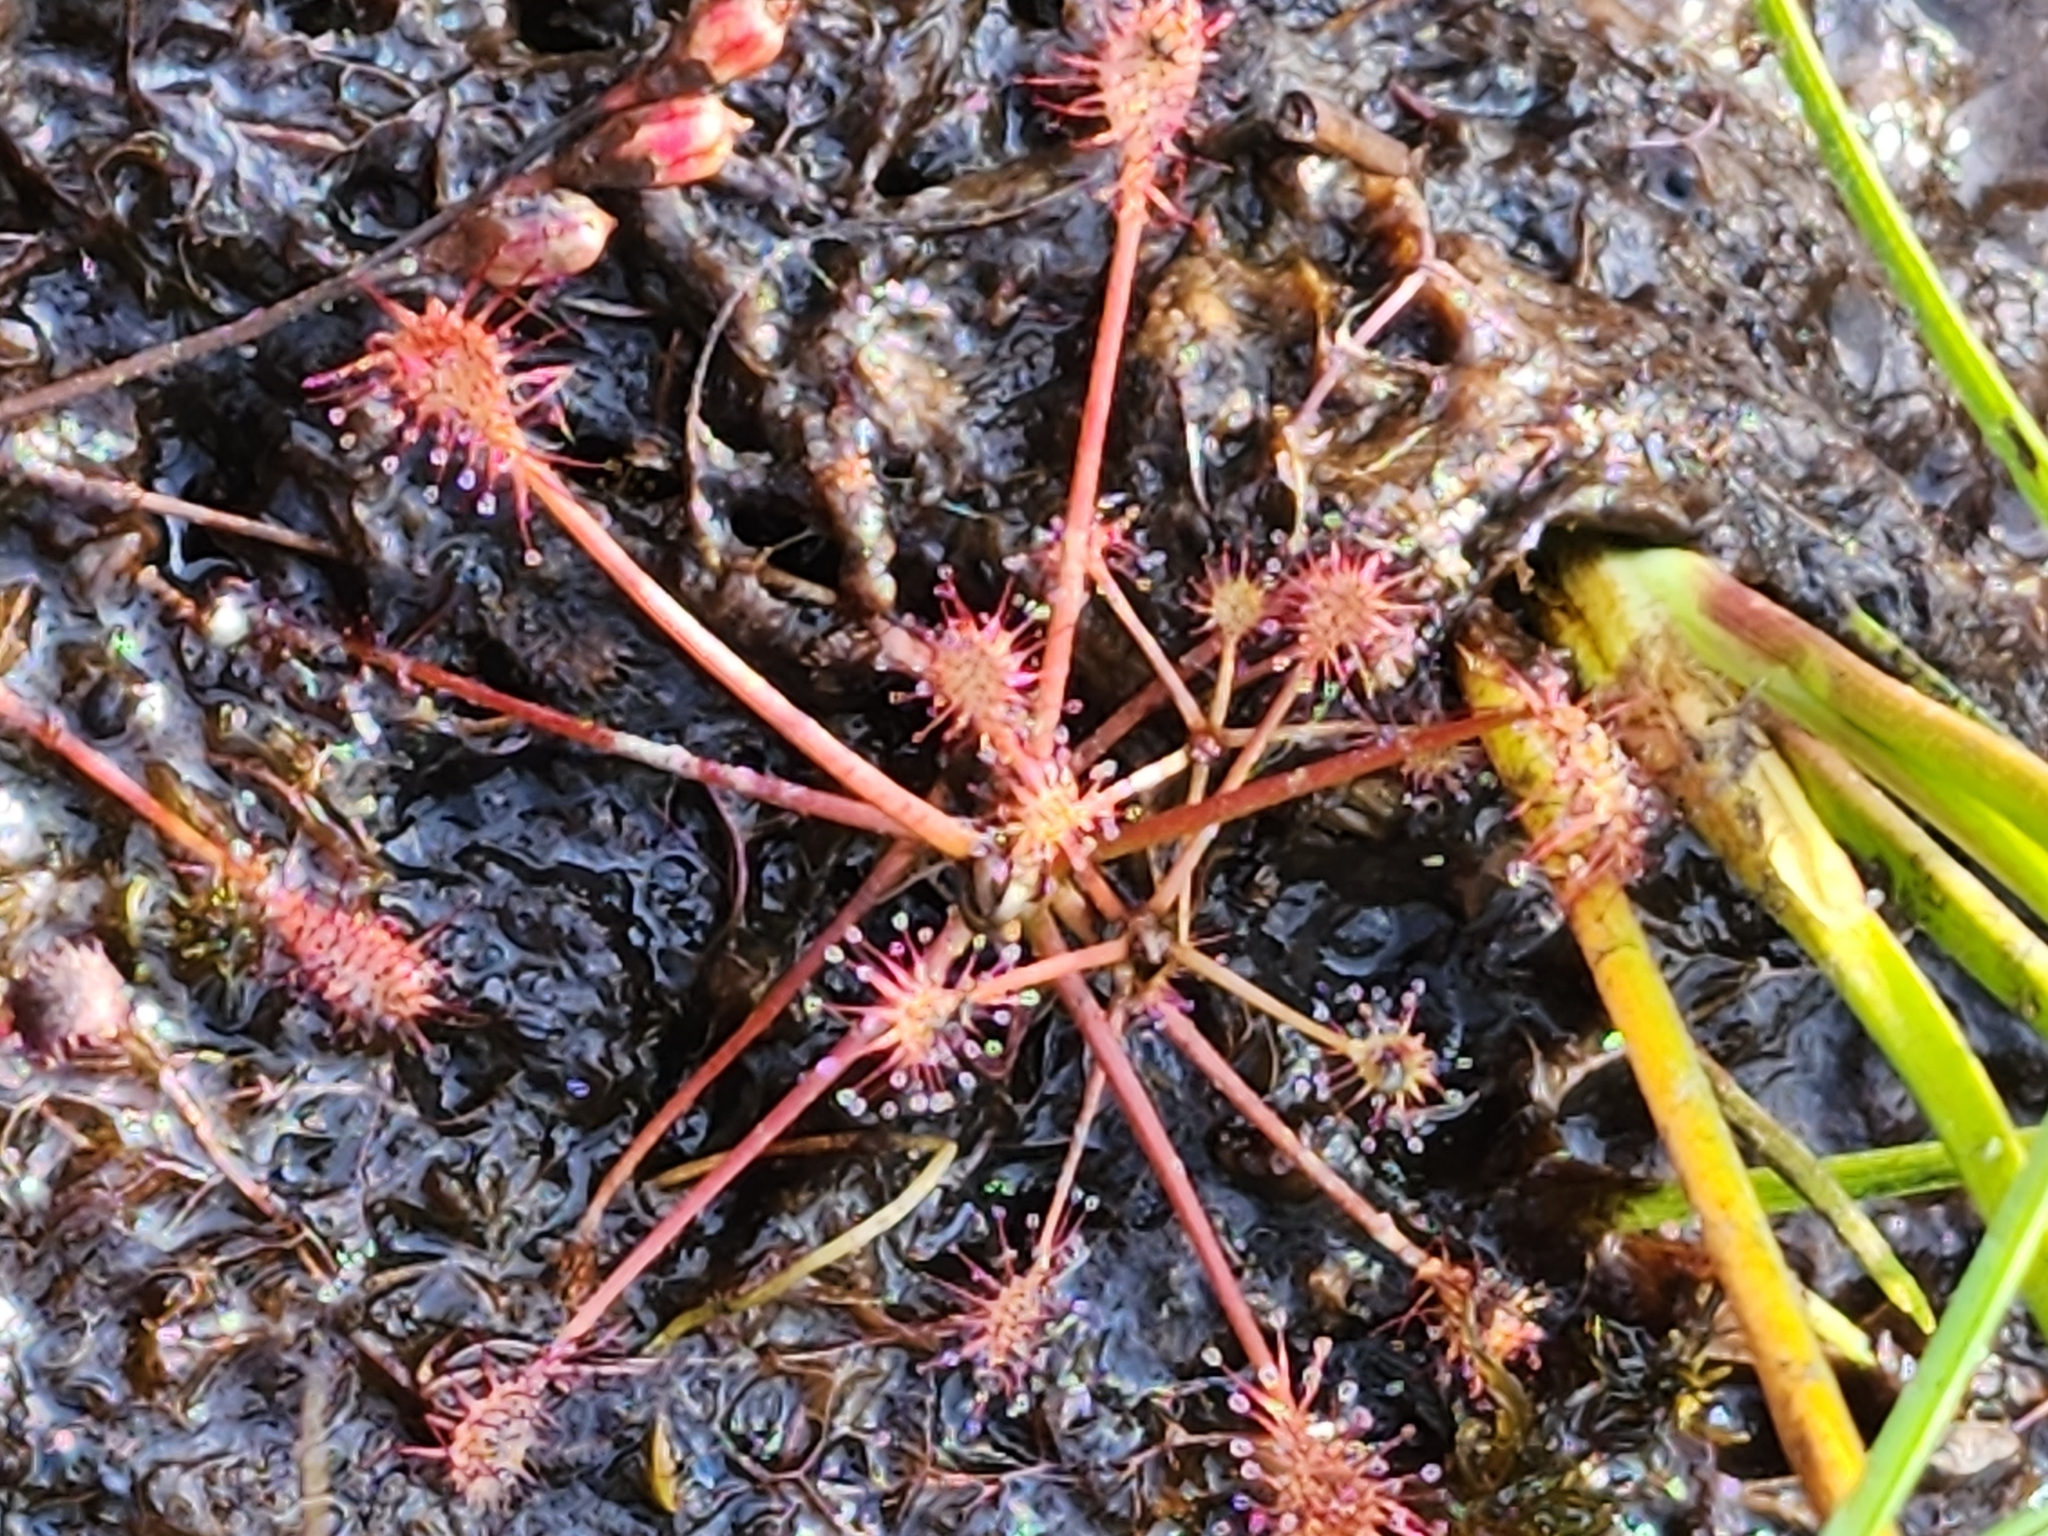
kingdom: Plantae
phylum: Tracheophyta
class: Magnoliopsida
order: Caryophyllales
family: Droseraceae
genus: Drosera
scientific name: Drosera intermedia
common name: Oblong-leaved sundew
